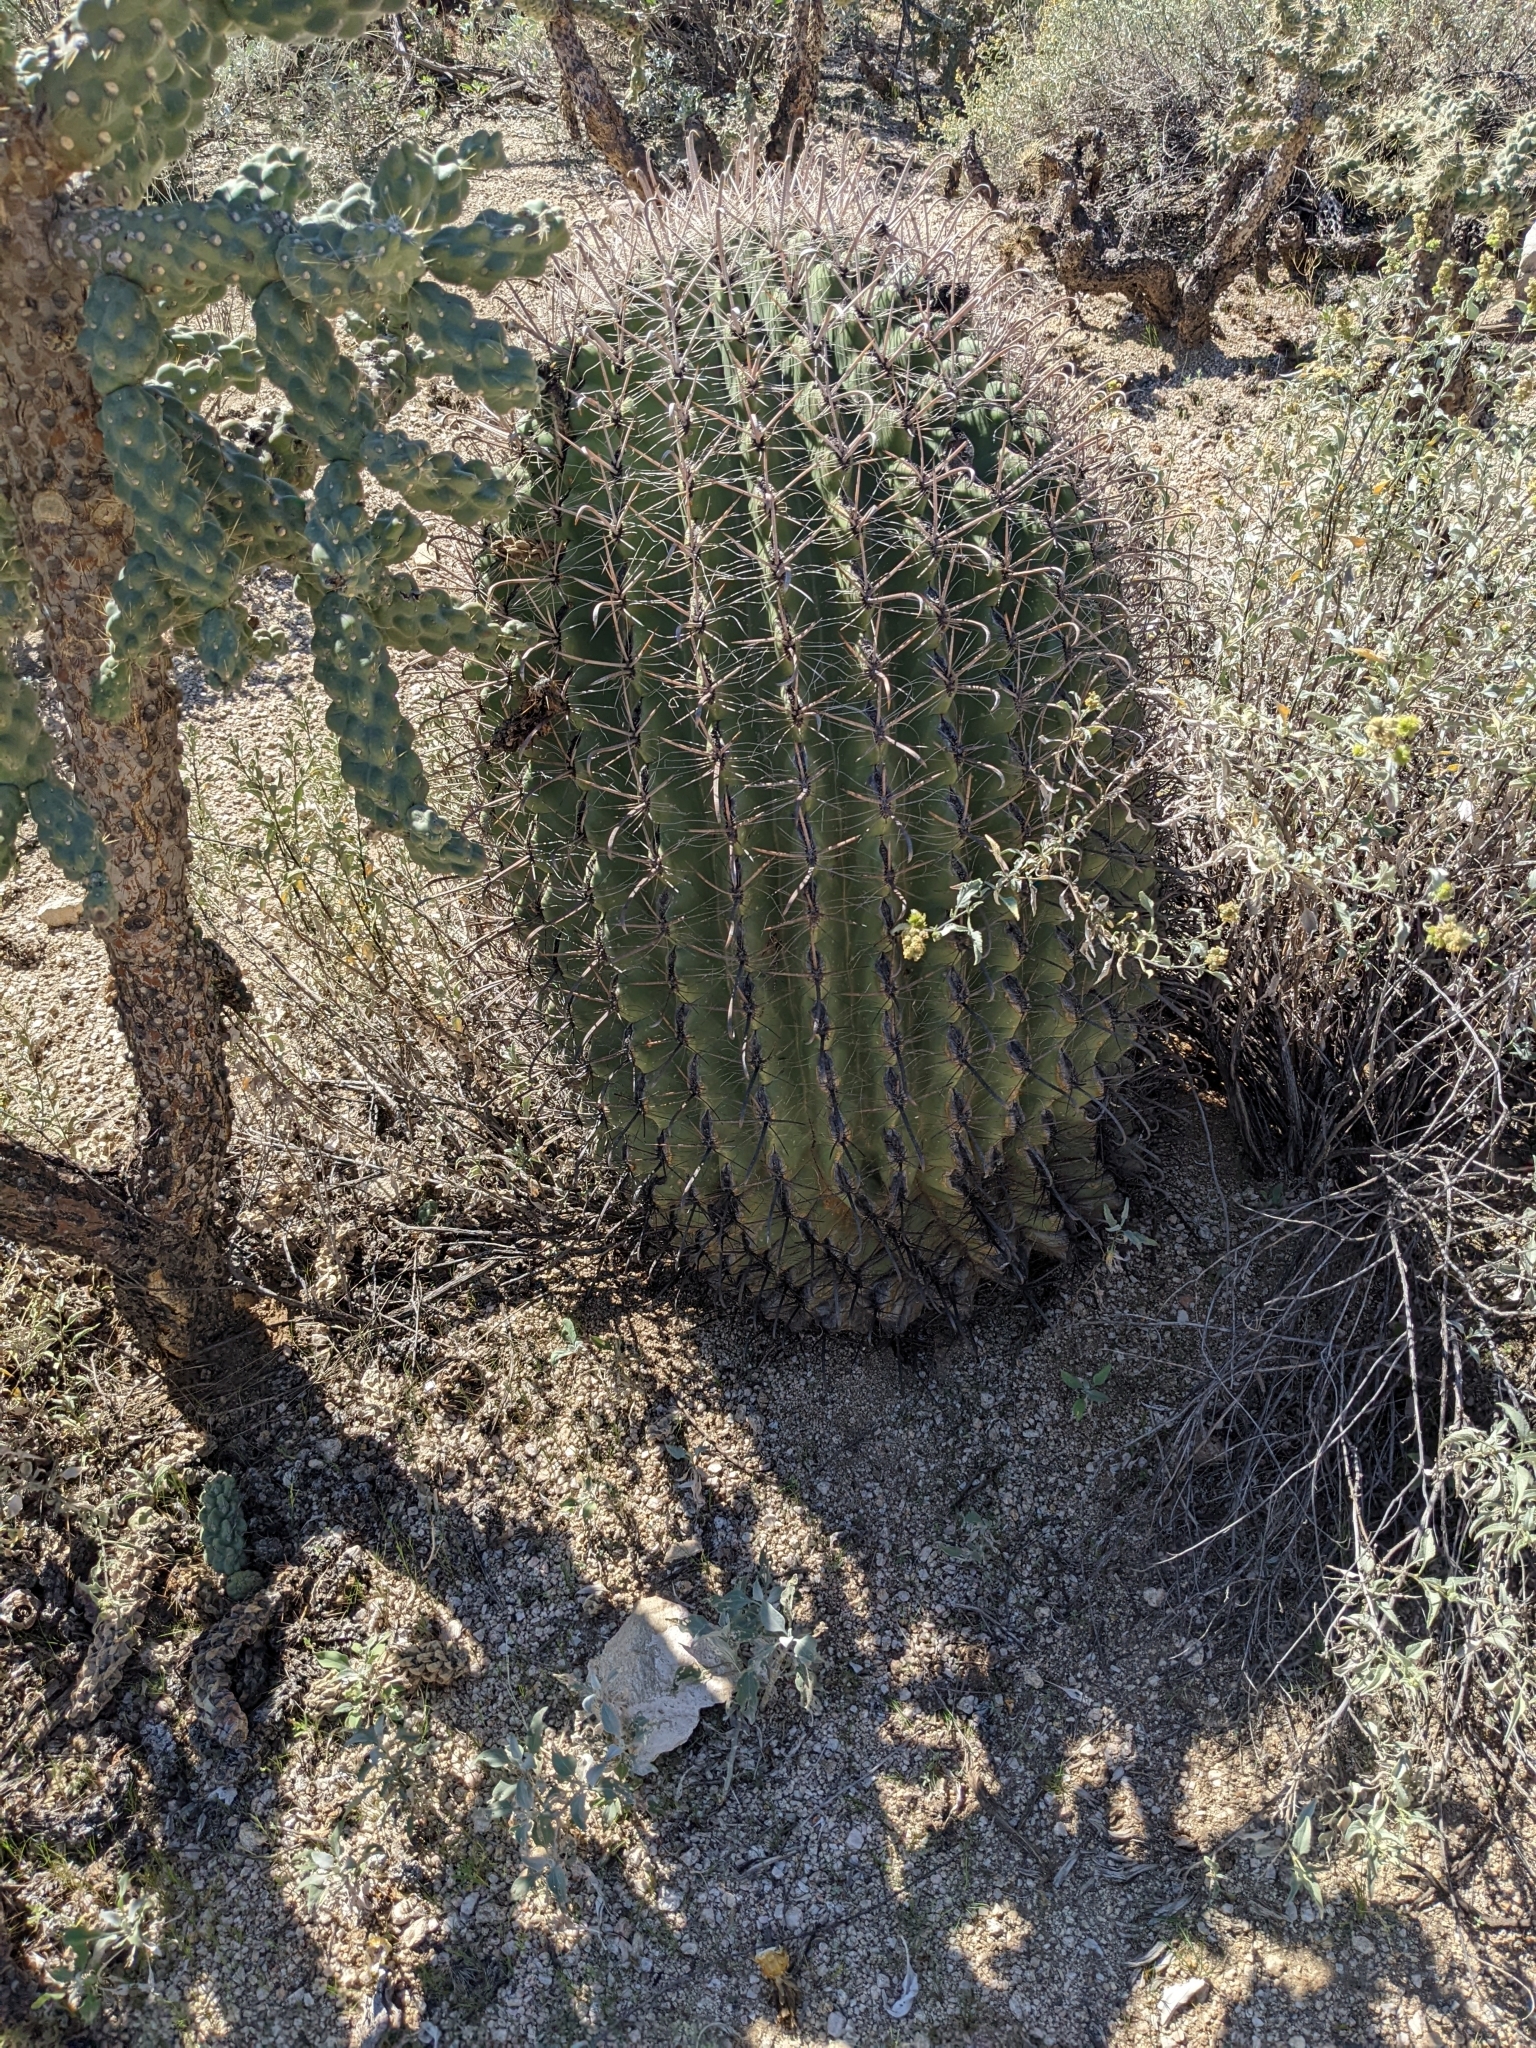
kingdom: Plantae
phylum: Tracheophyta
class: Magnoliopsida
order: Caryophyllales
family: Cactaceae
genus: Ferocactus
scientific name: Ferocactus wislizeni
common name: Candy barrel cactus
